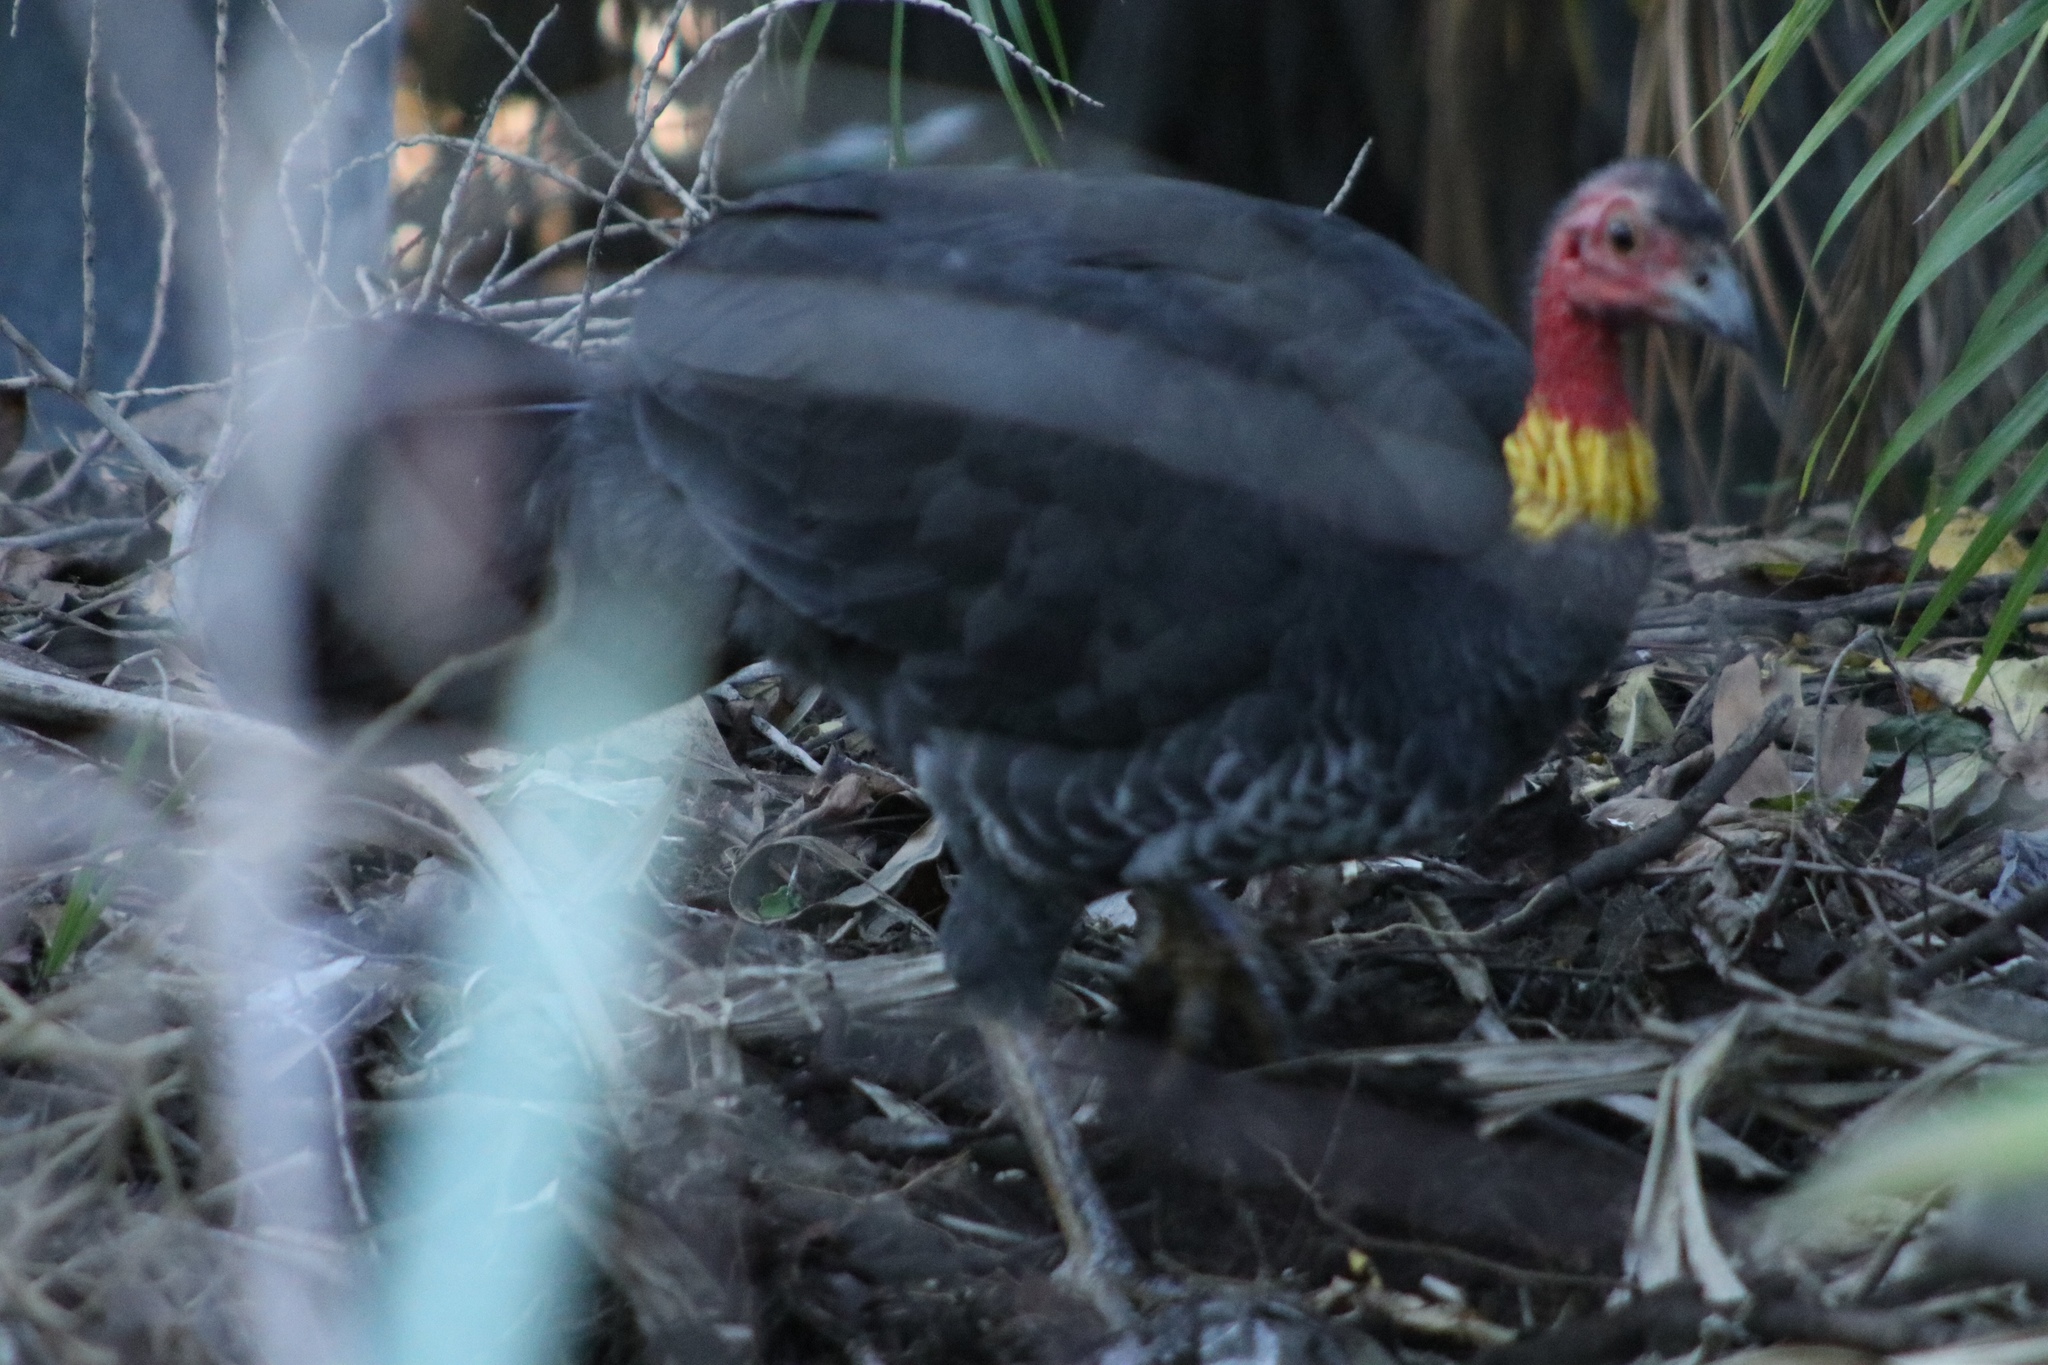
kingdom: Animalia
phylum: Chordata
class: Aves
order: Galliformes
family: Megapodiidae
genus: Alectura
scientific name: Alectura lathami
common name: Australian brushturkey
